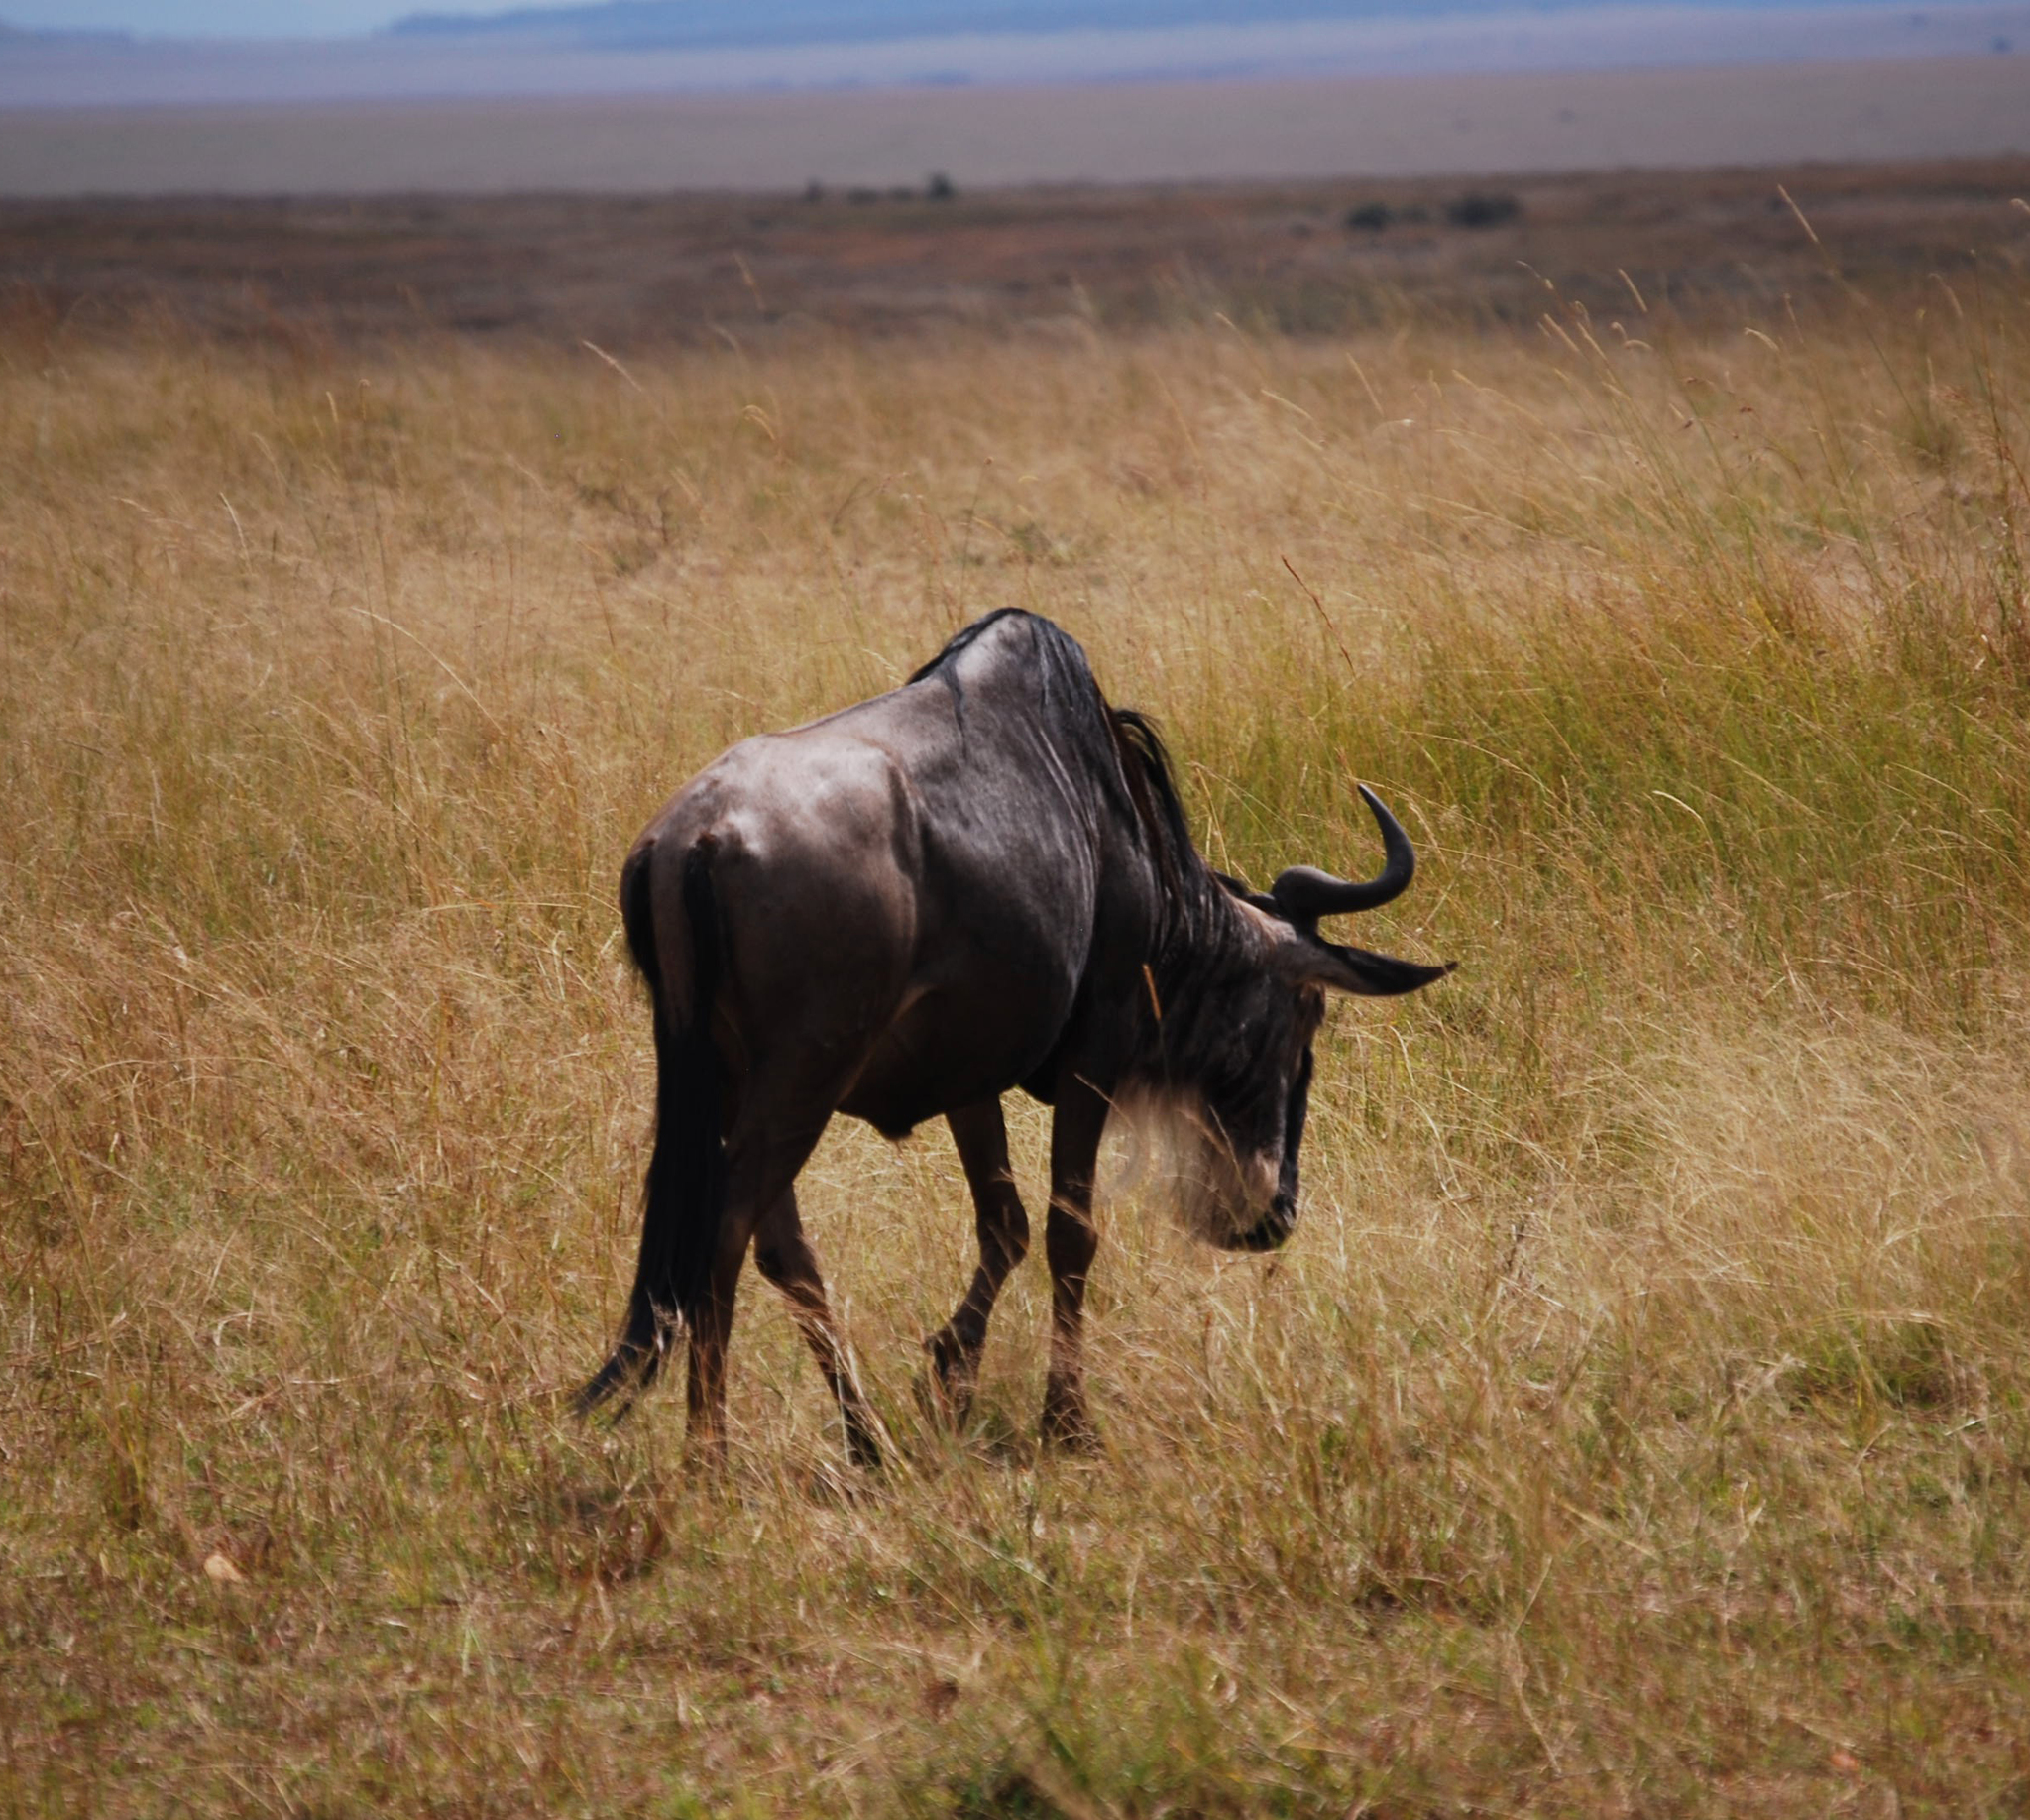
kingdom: Animalia
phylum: Chordata
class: Mammalia
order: Artiodactyla
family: Bovidae
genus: Connochaetes
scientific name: Connochaetes taurinus
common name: Blue wildebeest
